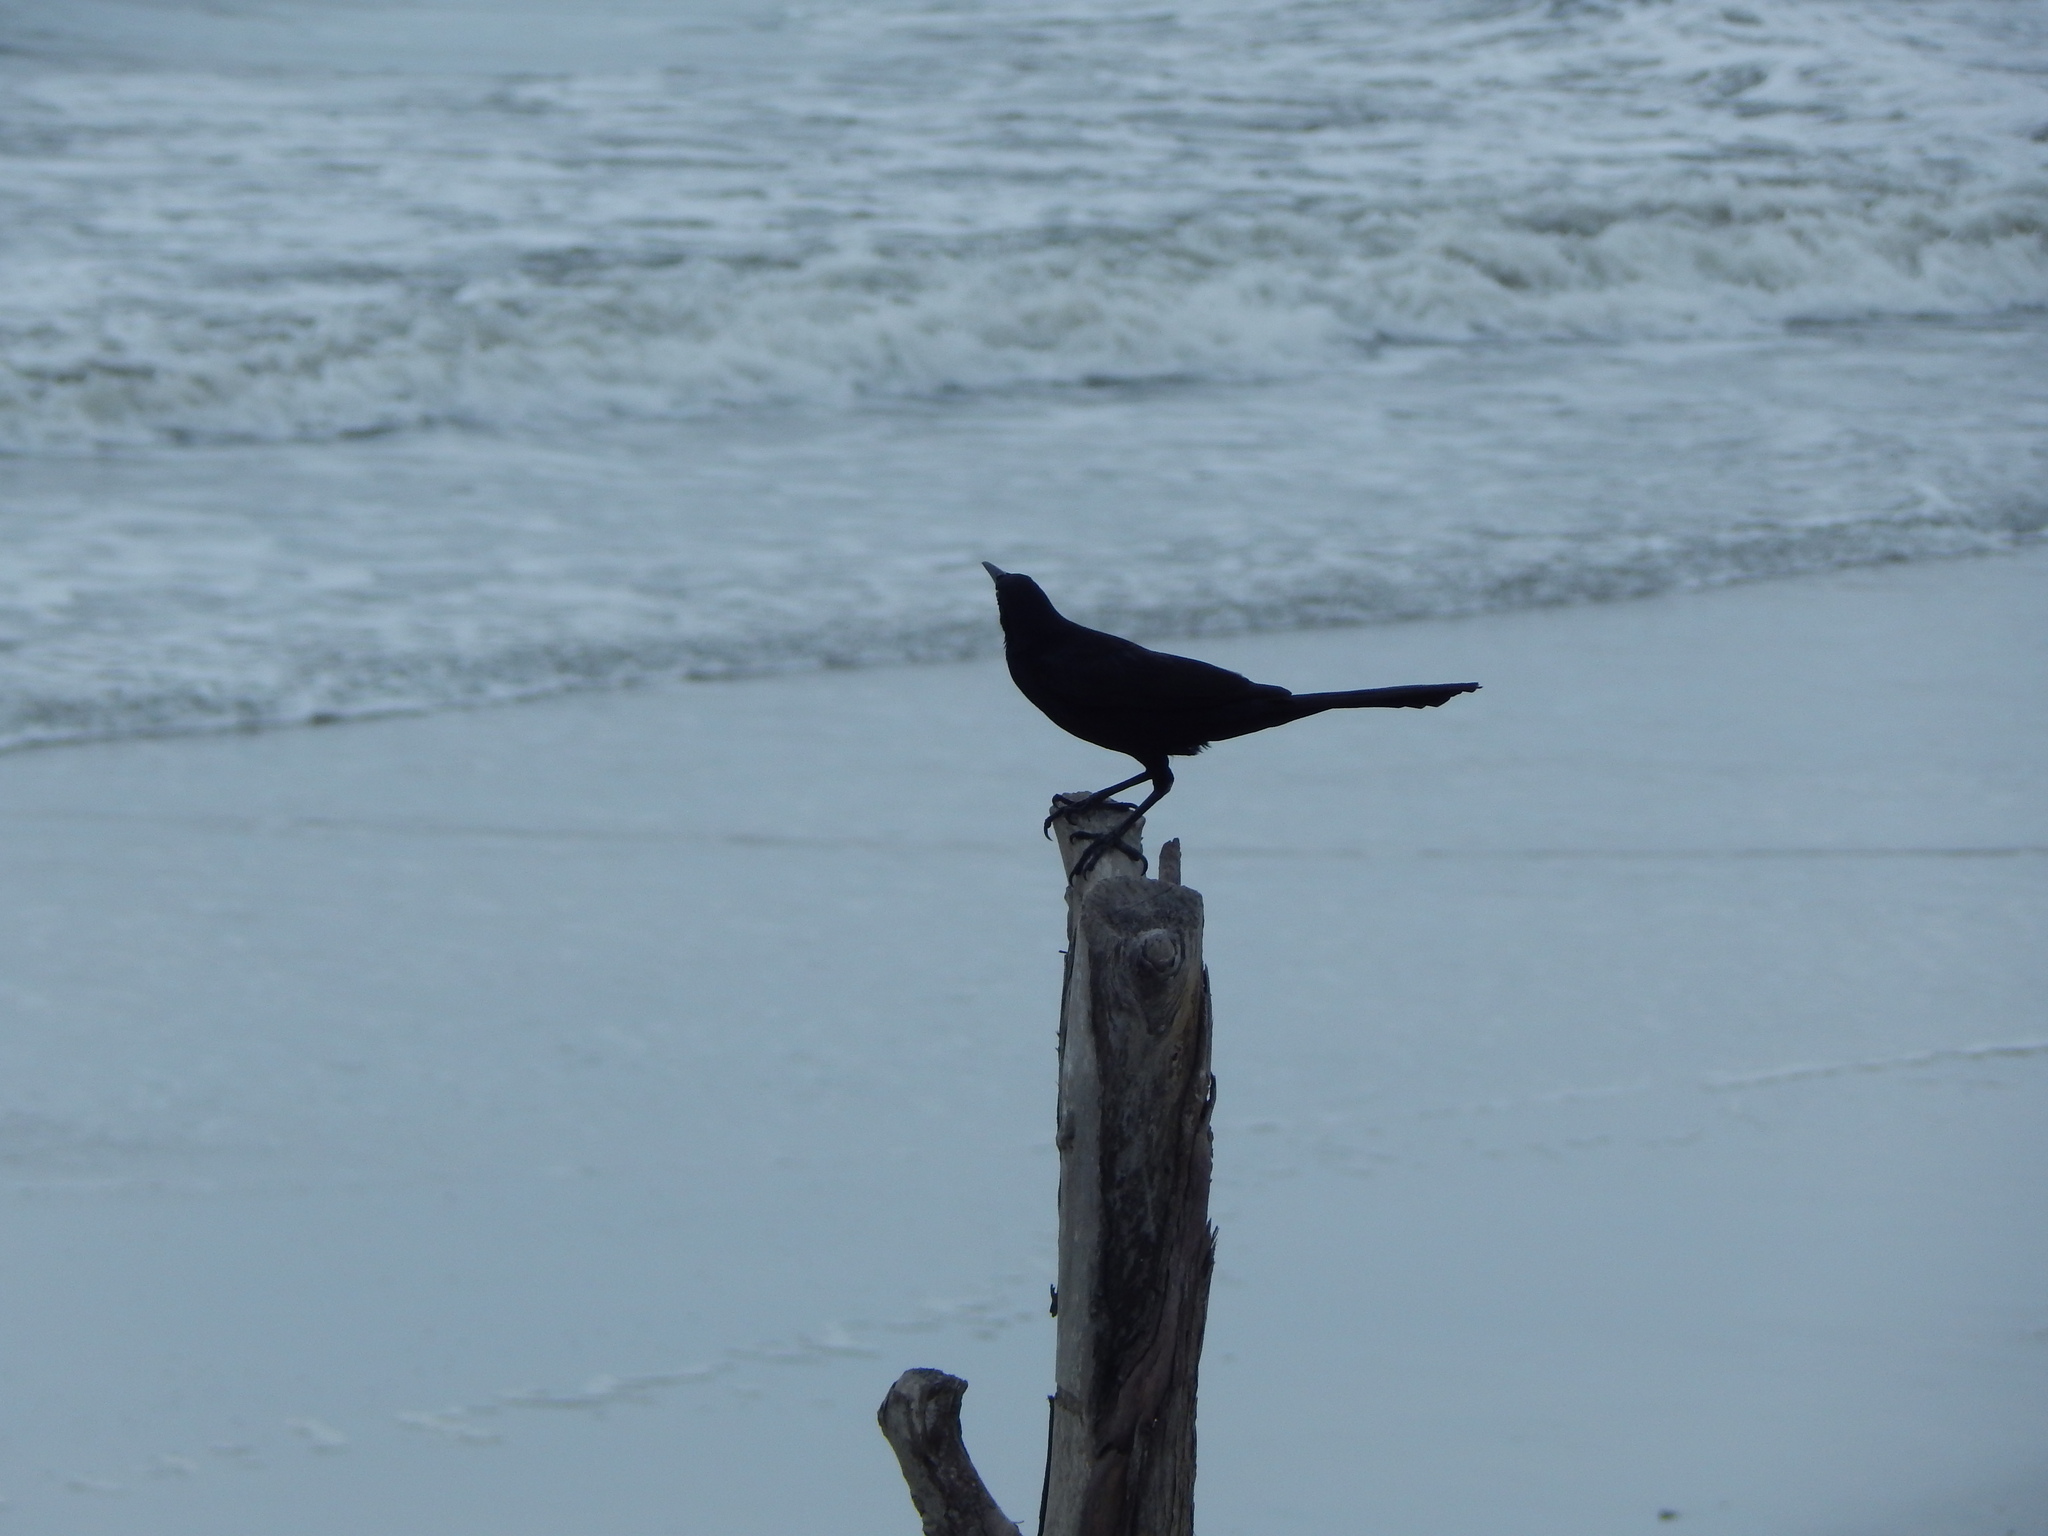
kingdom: Animalia
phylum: Chordata
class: Aves
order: Passeriformes
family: Icteridae
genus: Quiscalus
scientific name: Quiscalus mexicanus
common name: Great-tailed grackle
